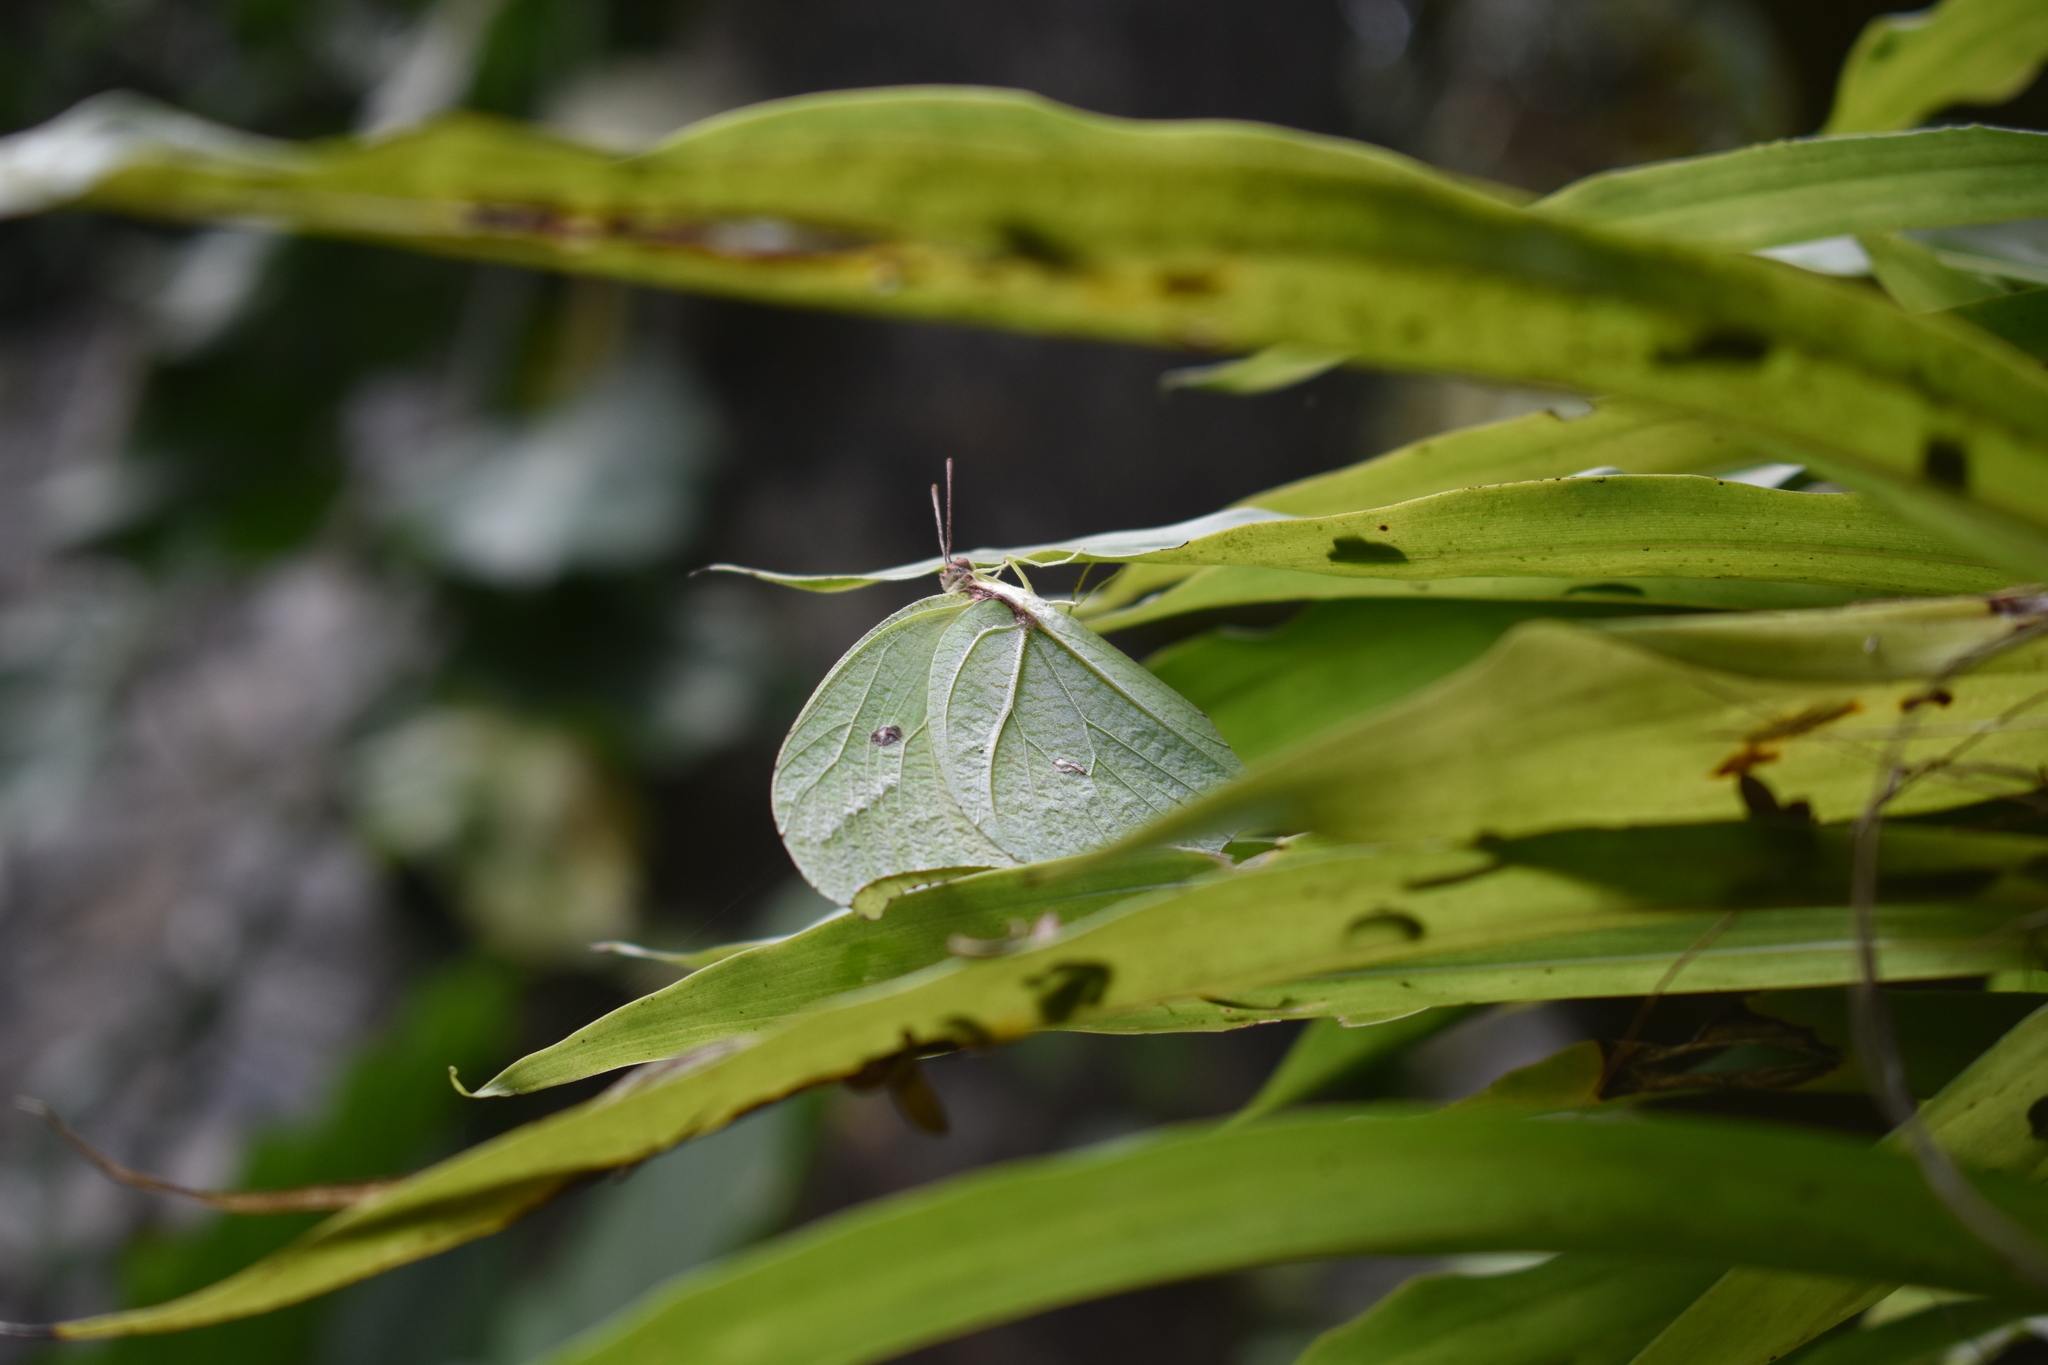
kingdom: Animalia
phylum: Arthropoda
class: Insecta
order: Lepidoptera
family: Pieridae
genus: Anteos
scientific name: Anteos maerula
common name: Angled sulphur
